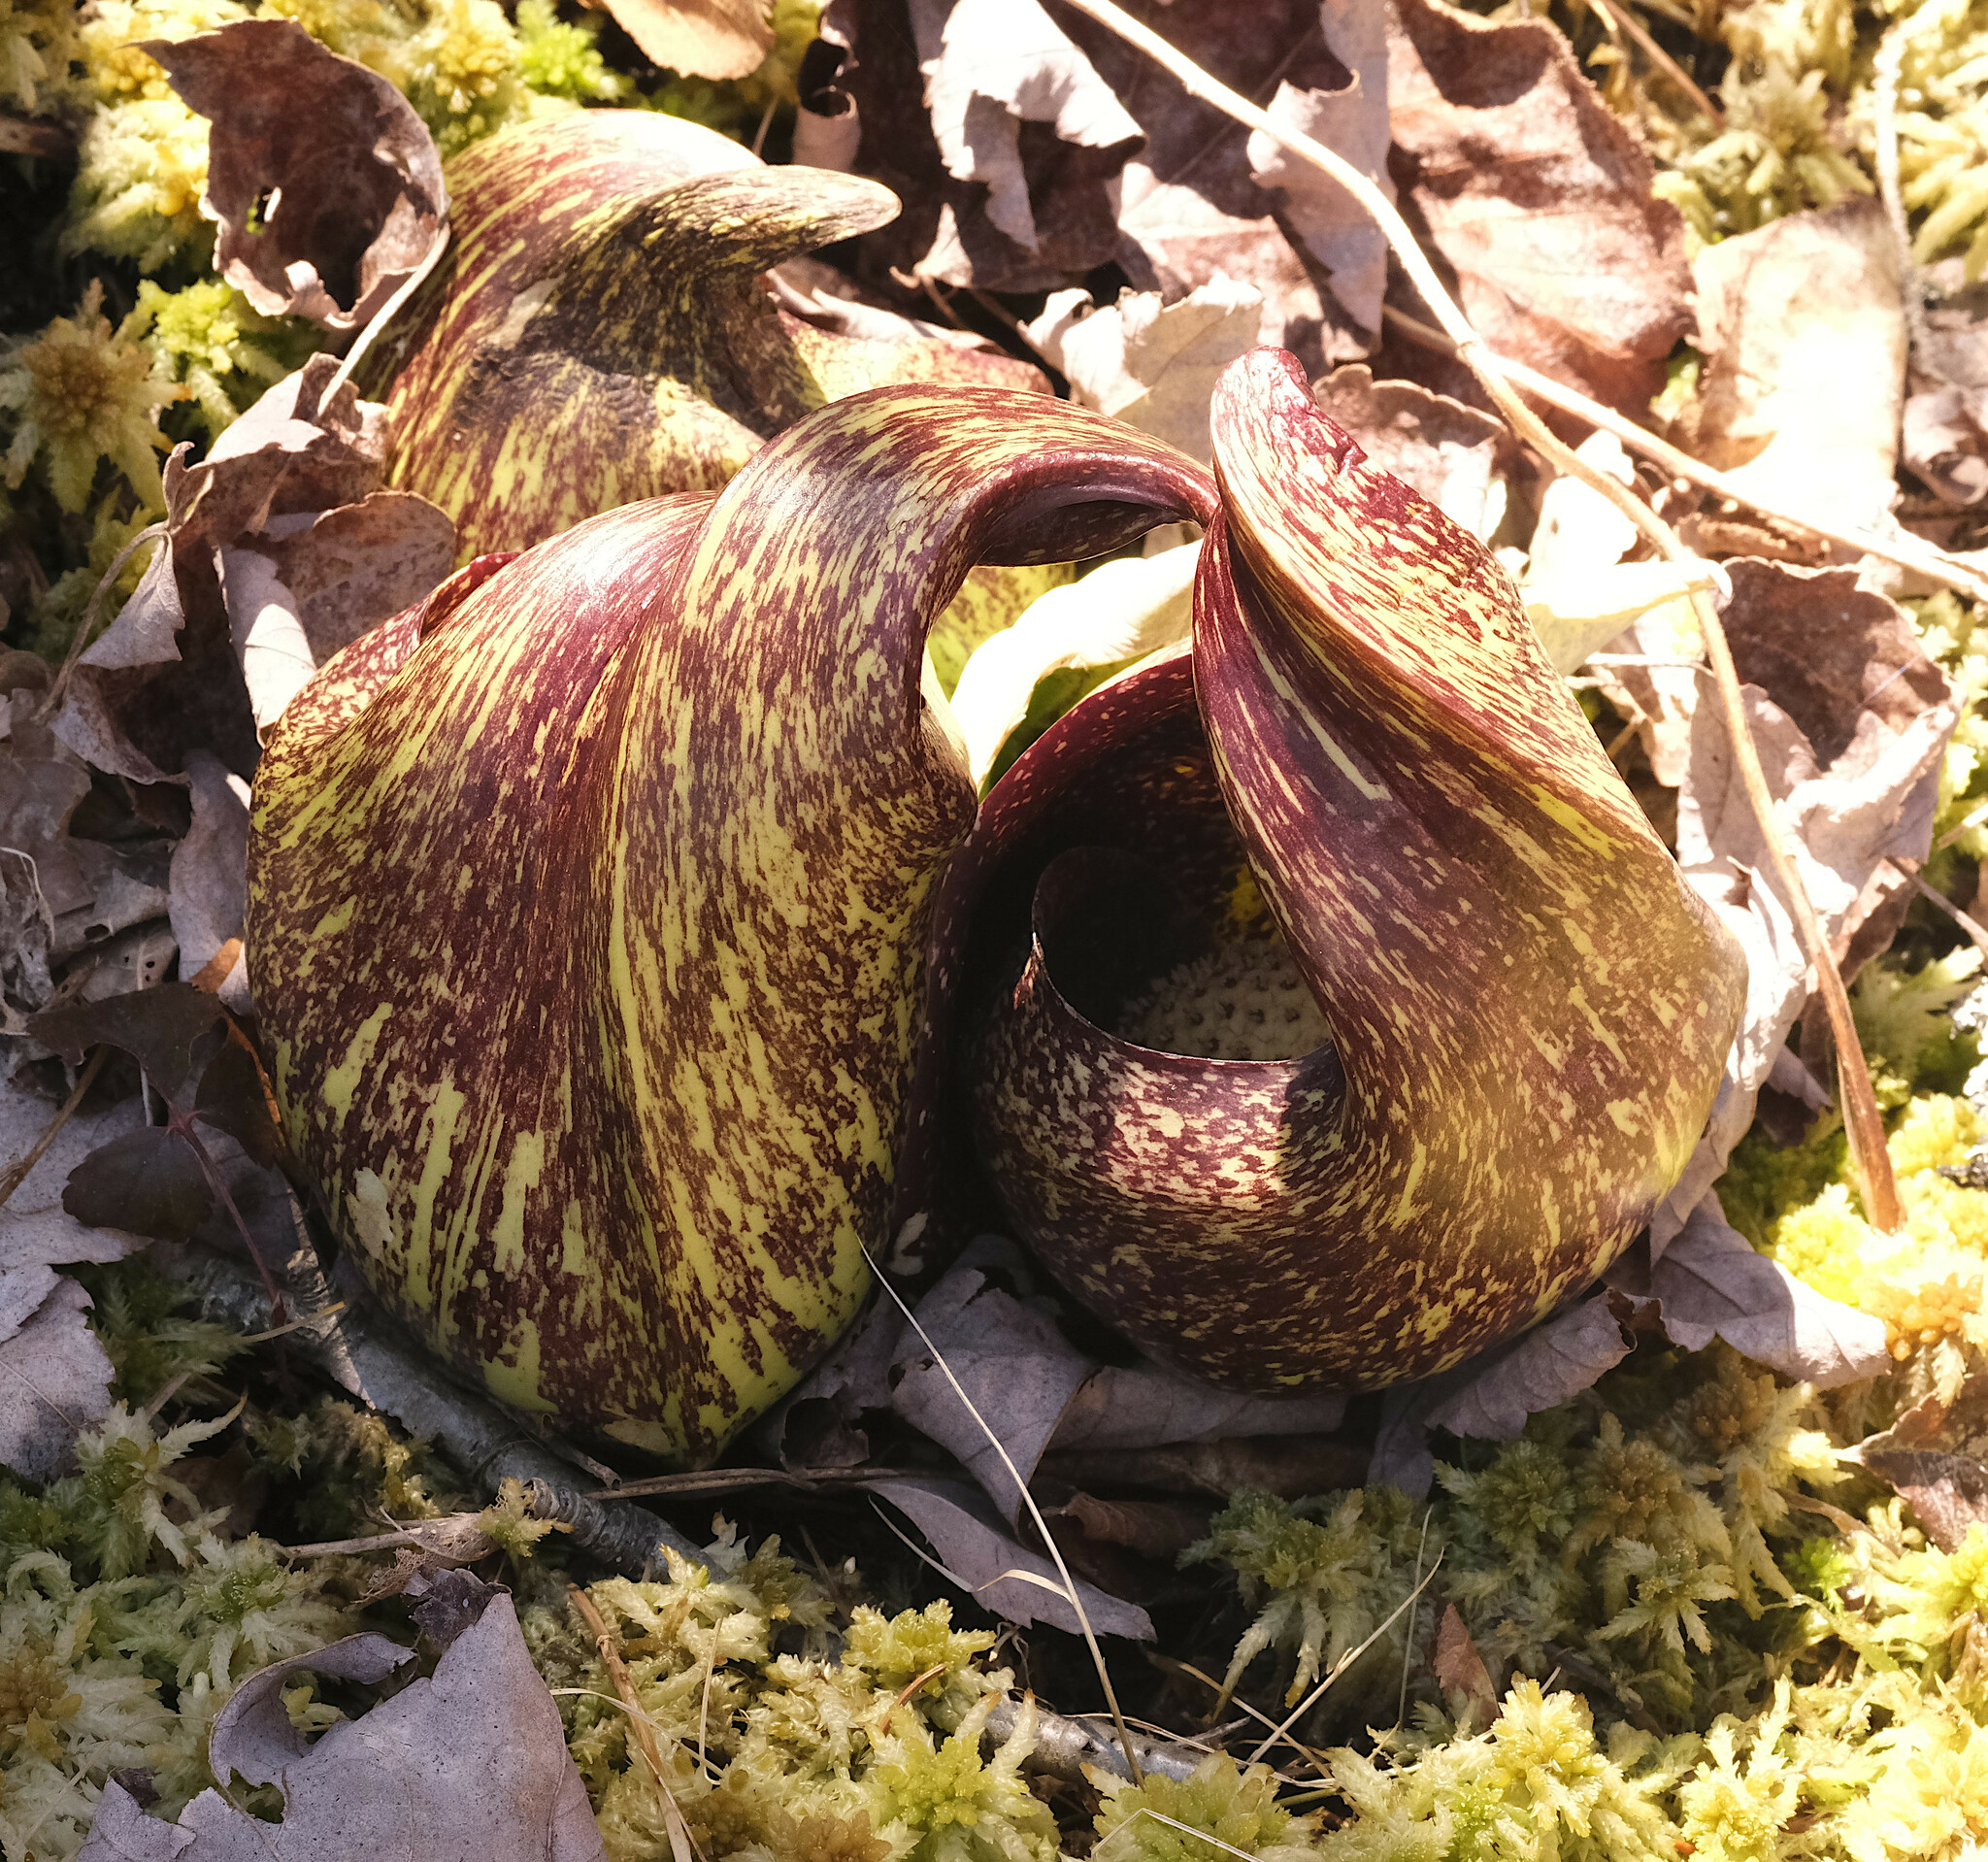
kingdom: Plantae
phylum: Tracheophyta
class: Liliopsida
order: Alismatales
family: Araceae
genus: Symplocarpus
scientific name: Symplocarpus foetidus
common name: Eastern skunk cabbage
